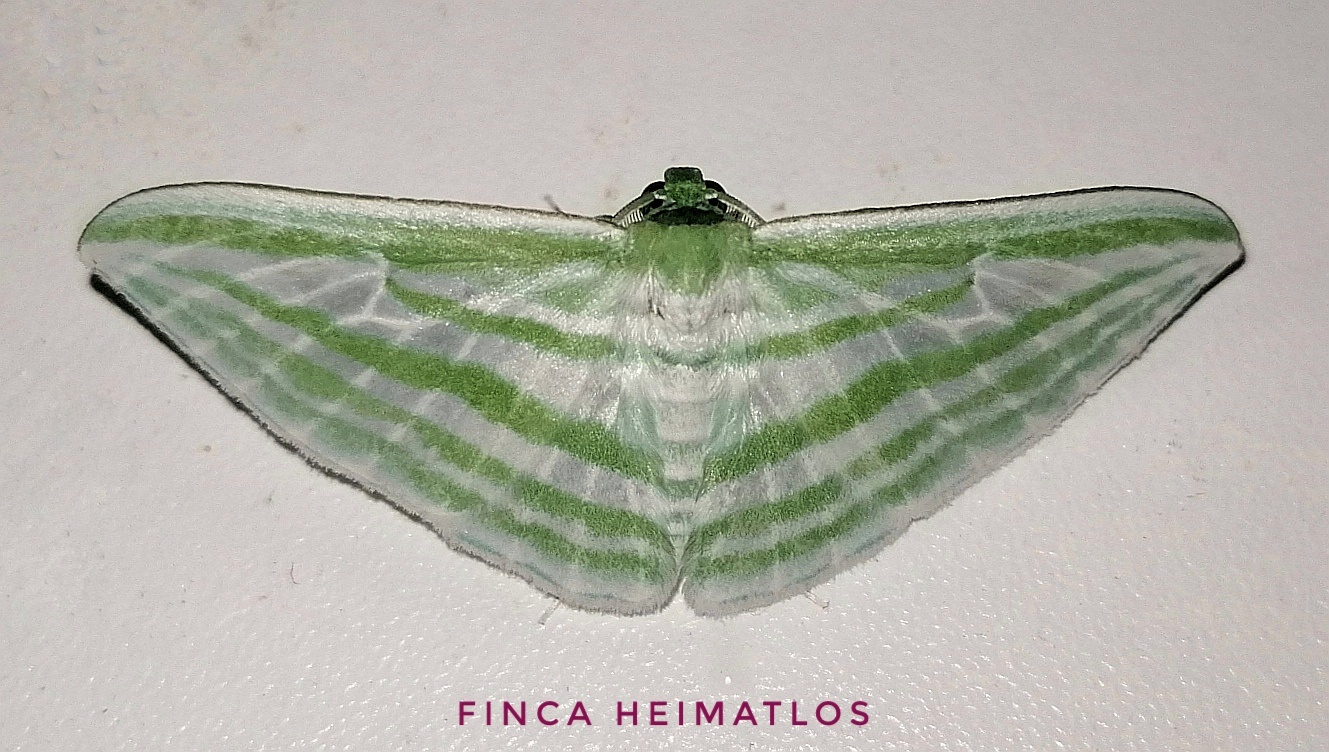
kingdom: Animalia
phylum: Arthropoda
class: Insecta
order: Lepidoptera
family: Geometridae
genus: Dyspteris
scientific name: Dyspteris gigantea
